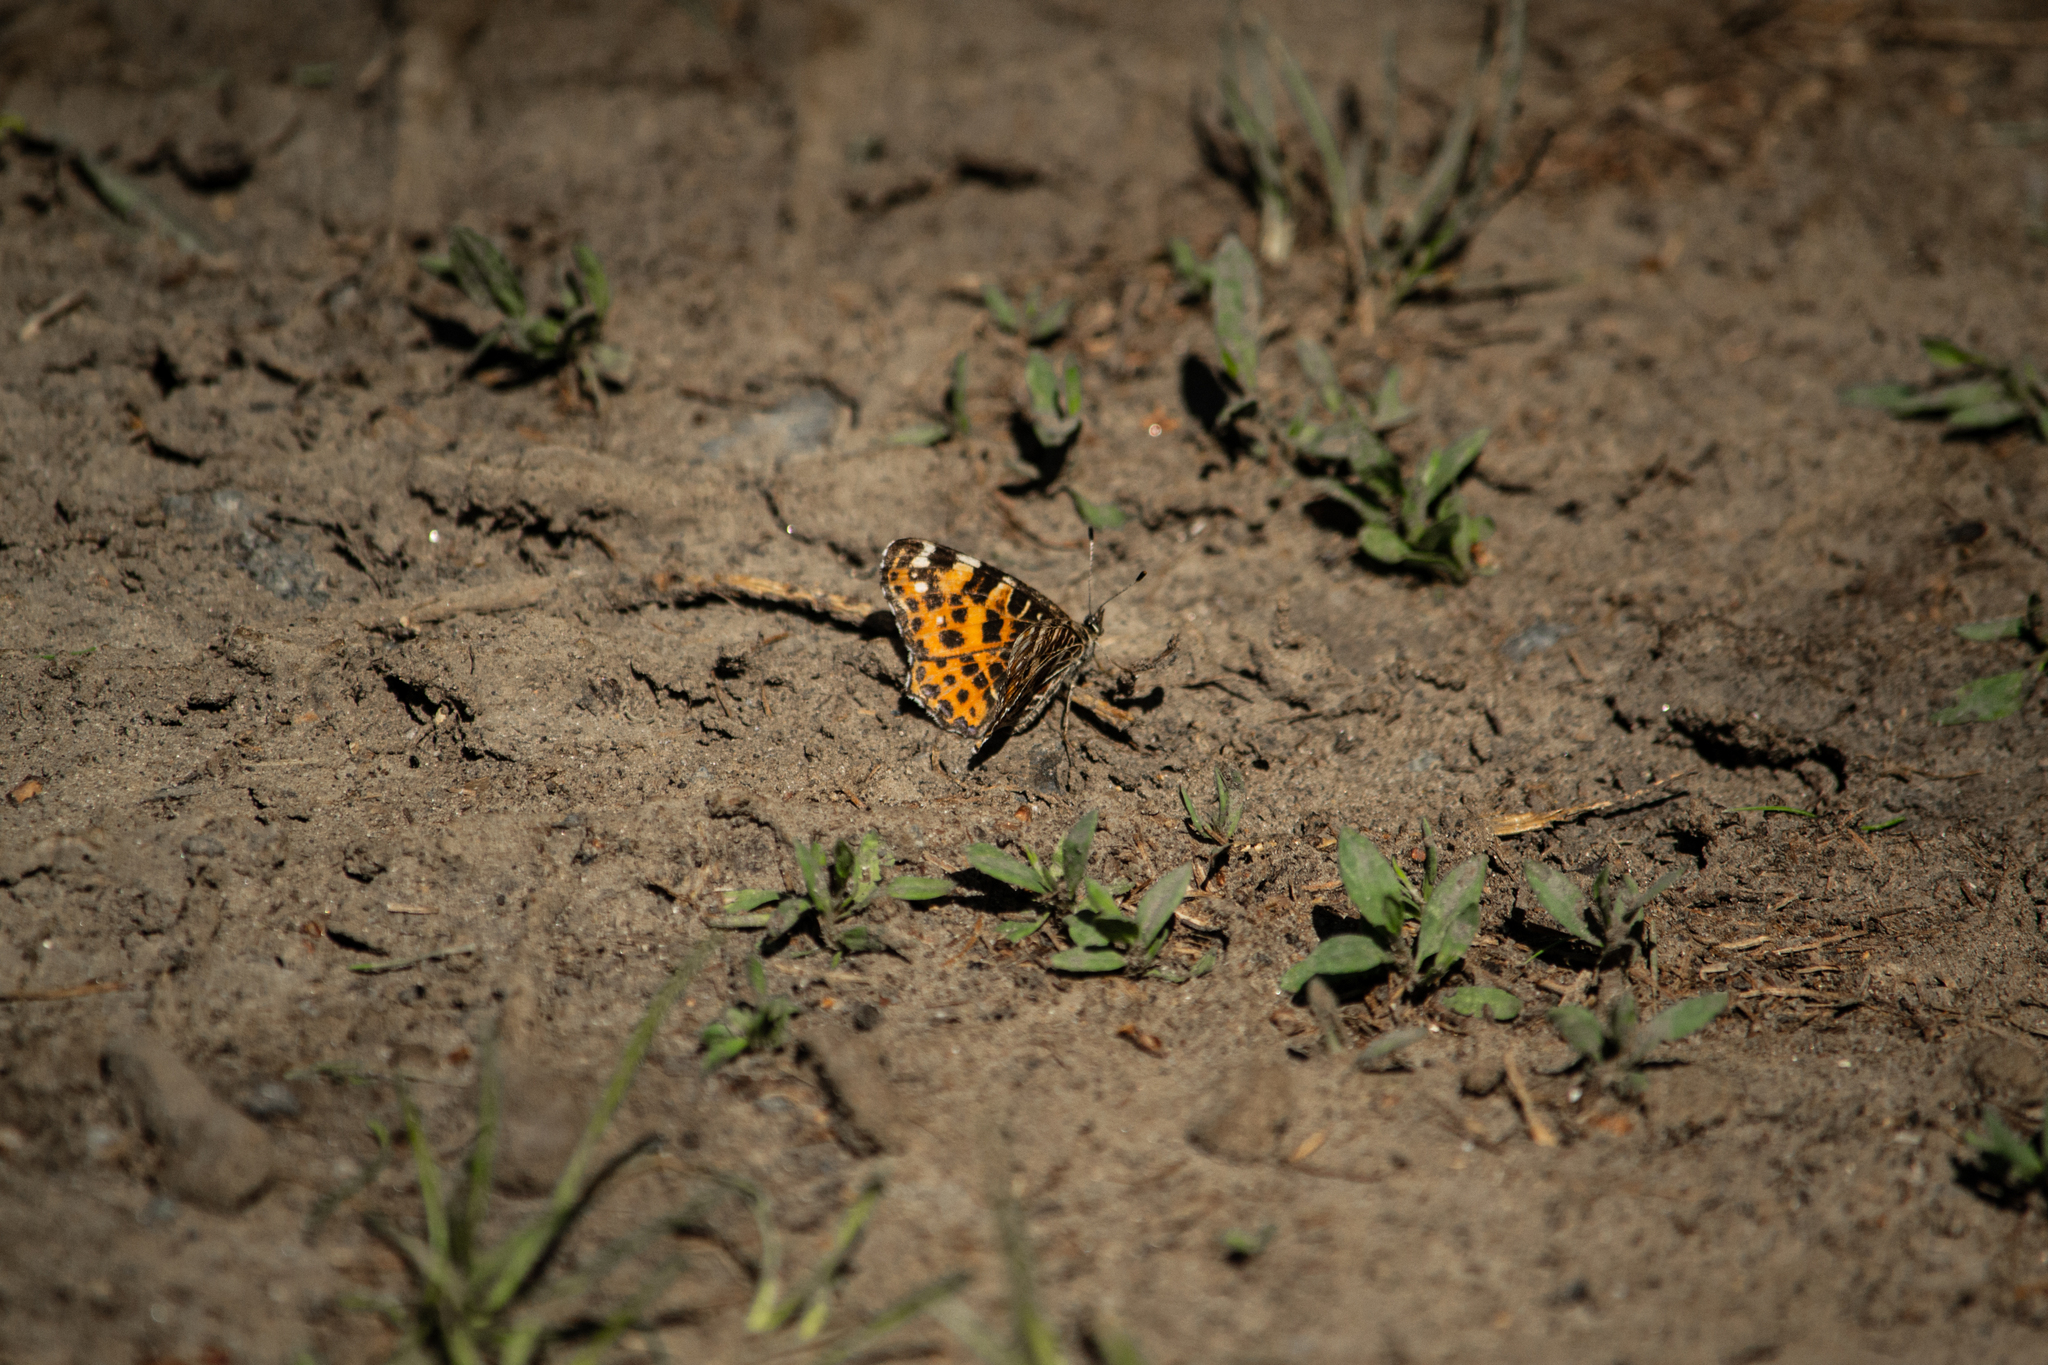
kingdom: Animalia
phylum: Arthropoda
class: Insecta
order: Lepidoptera
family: Nymphalidae
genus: Araschnia
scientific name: Araschnia levana
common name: Map butterfly
